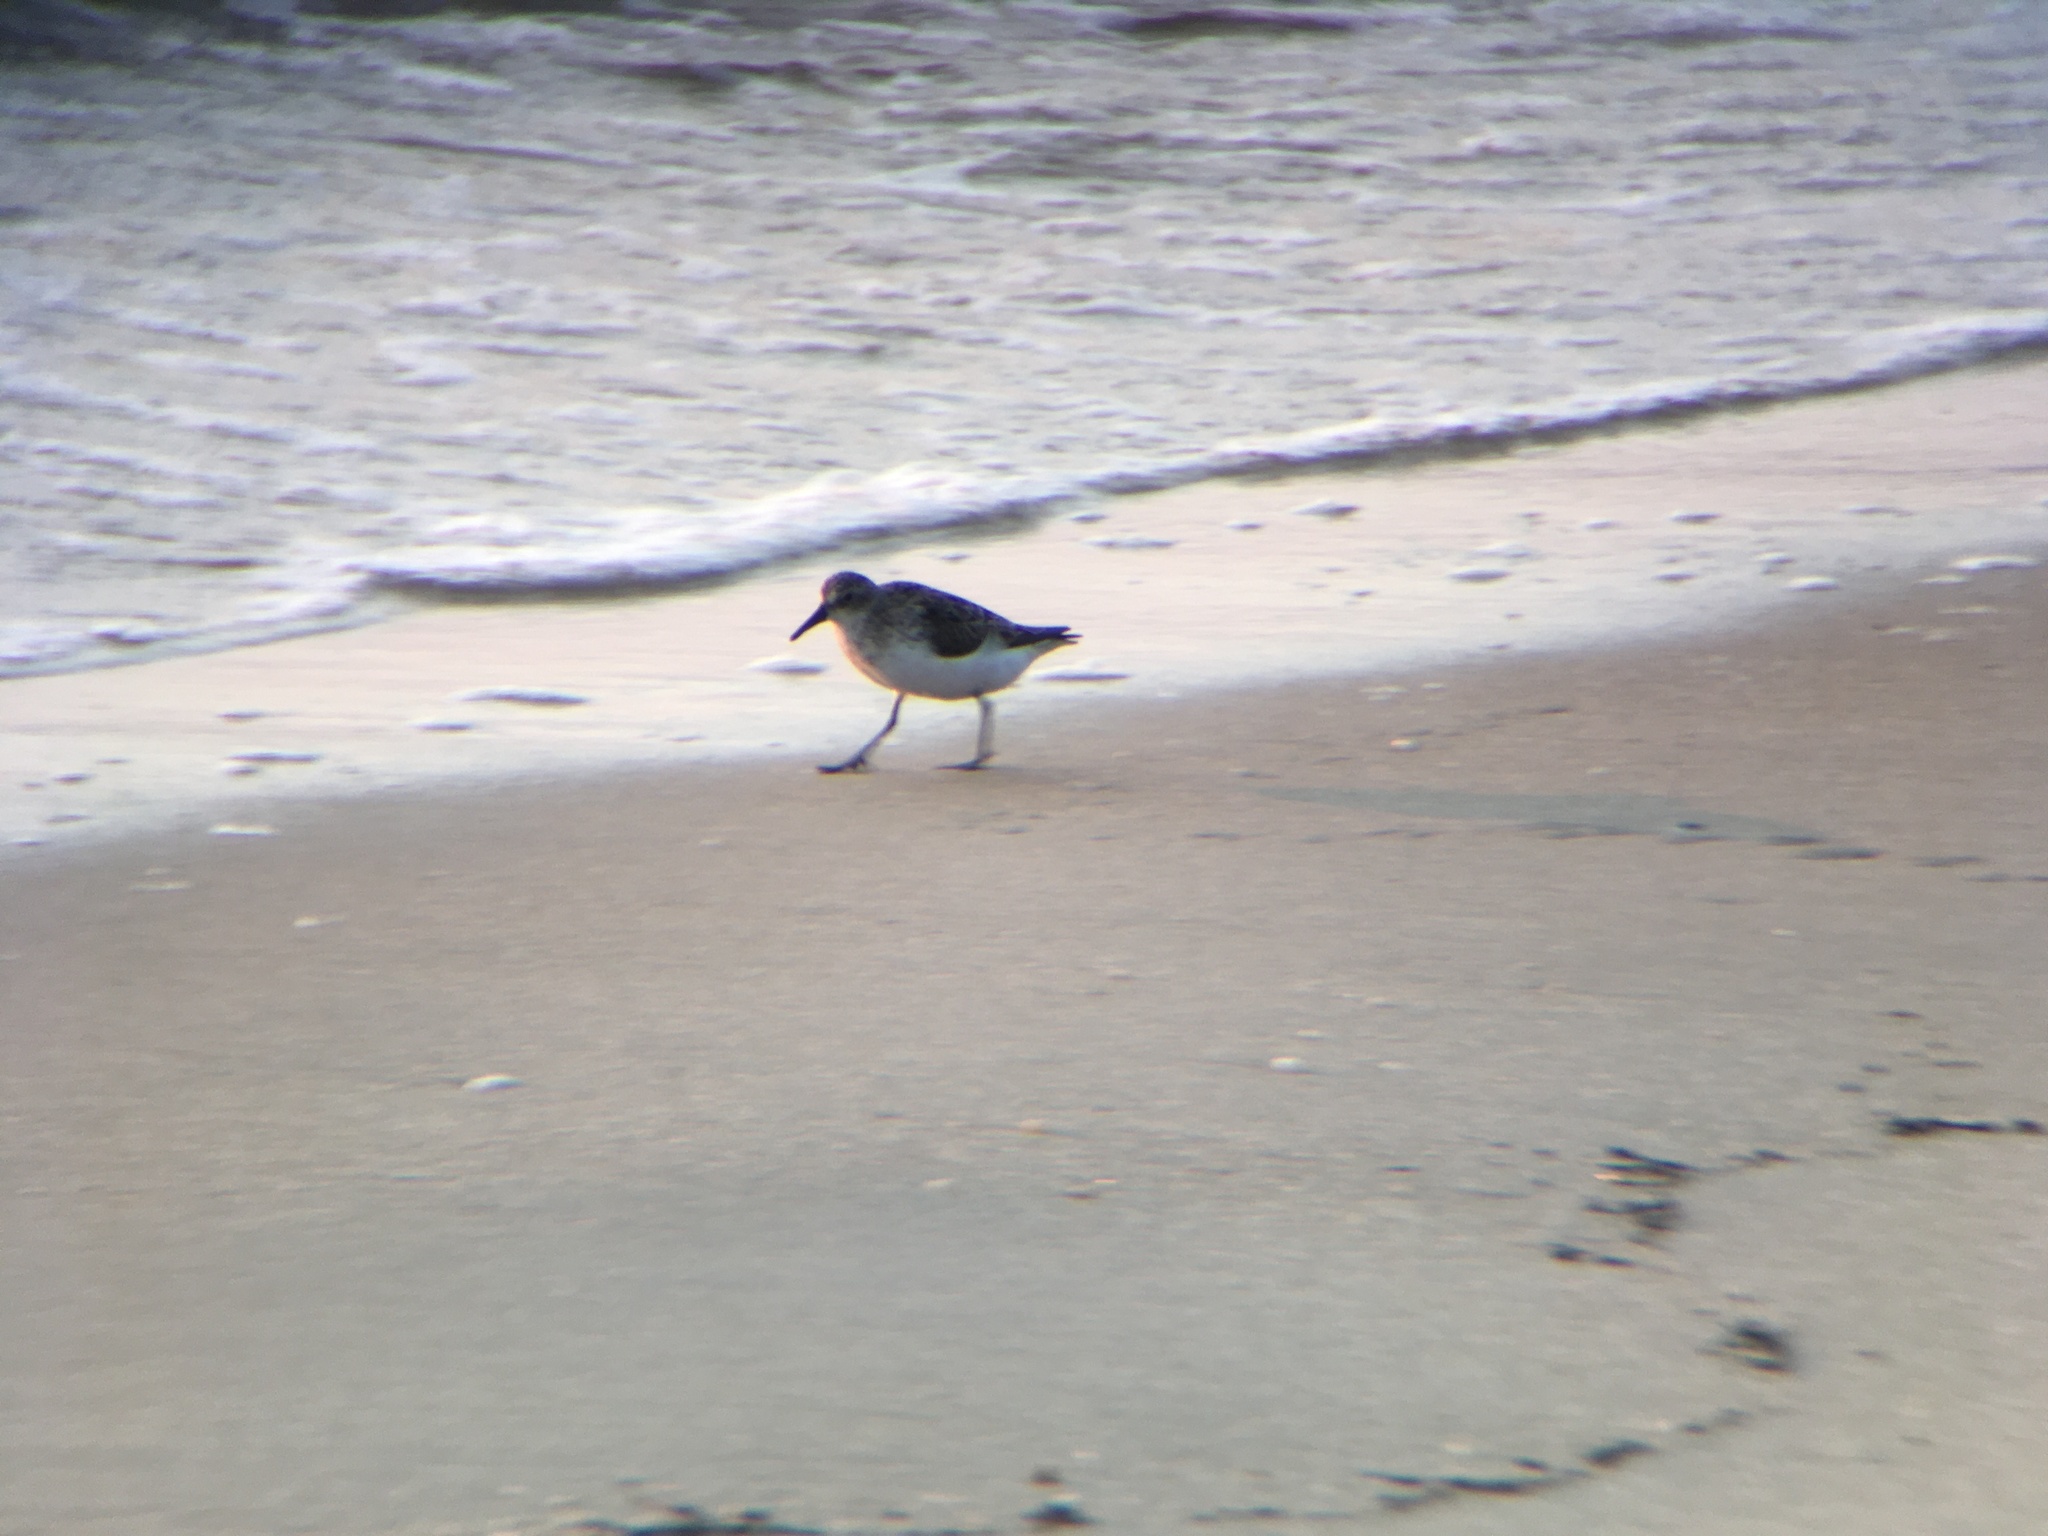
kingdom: Animalia
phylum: Chordata
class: Aves
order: Charadriiformes
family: Scolopacidae
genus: Calidris
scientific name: Calidris alba
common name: Sanderling
